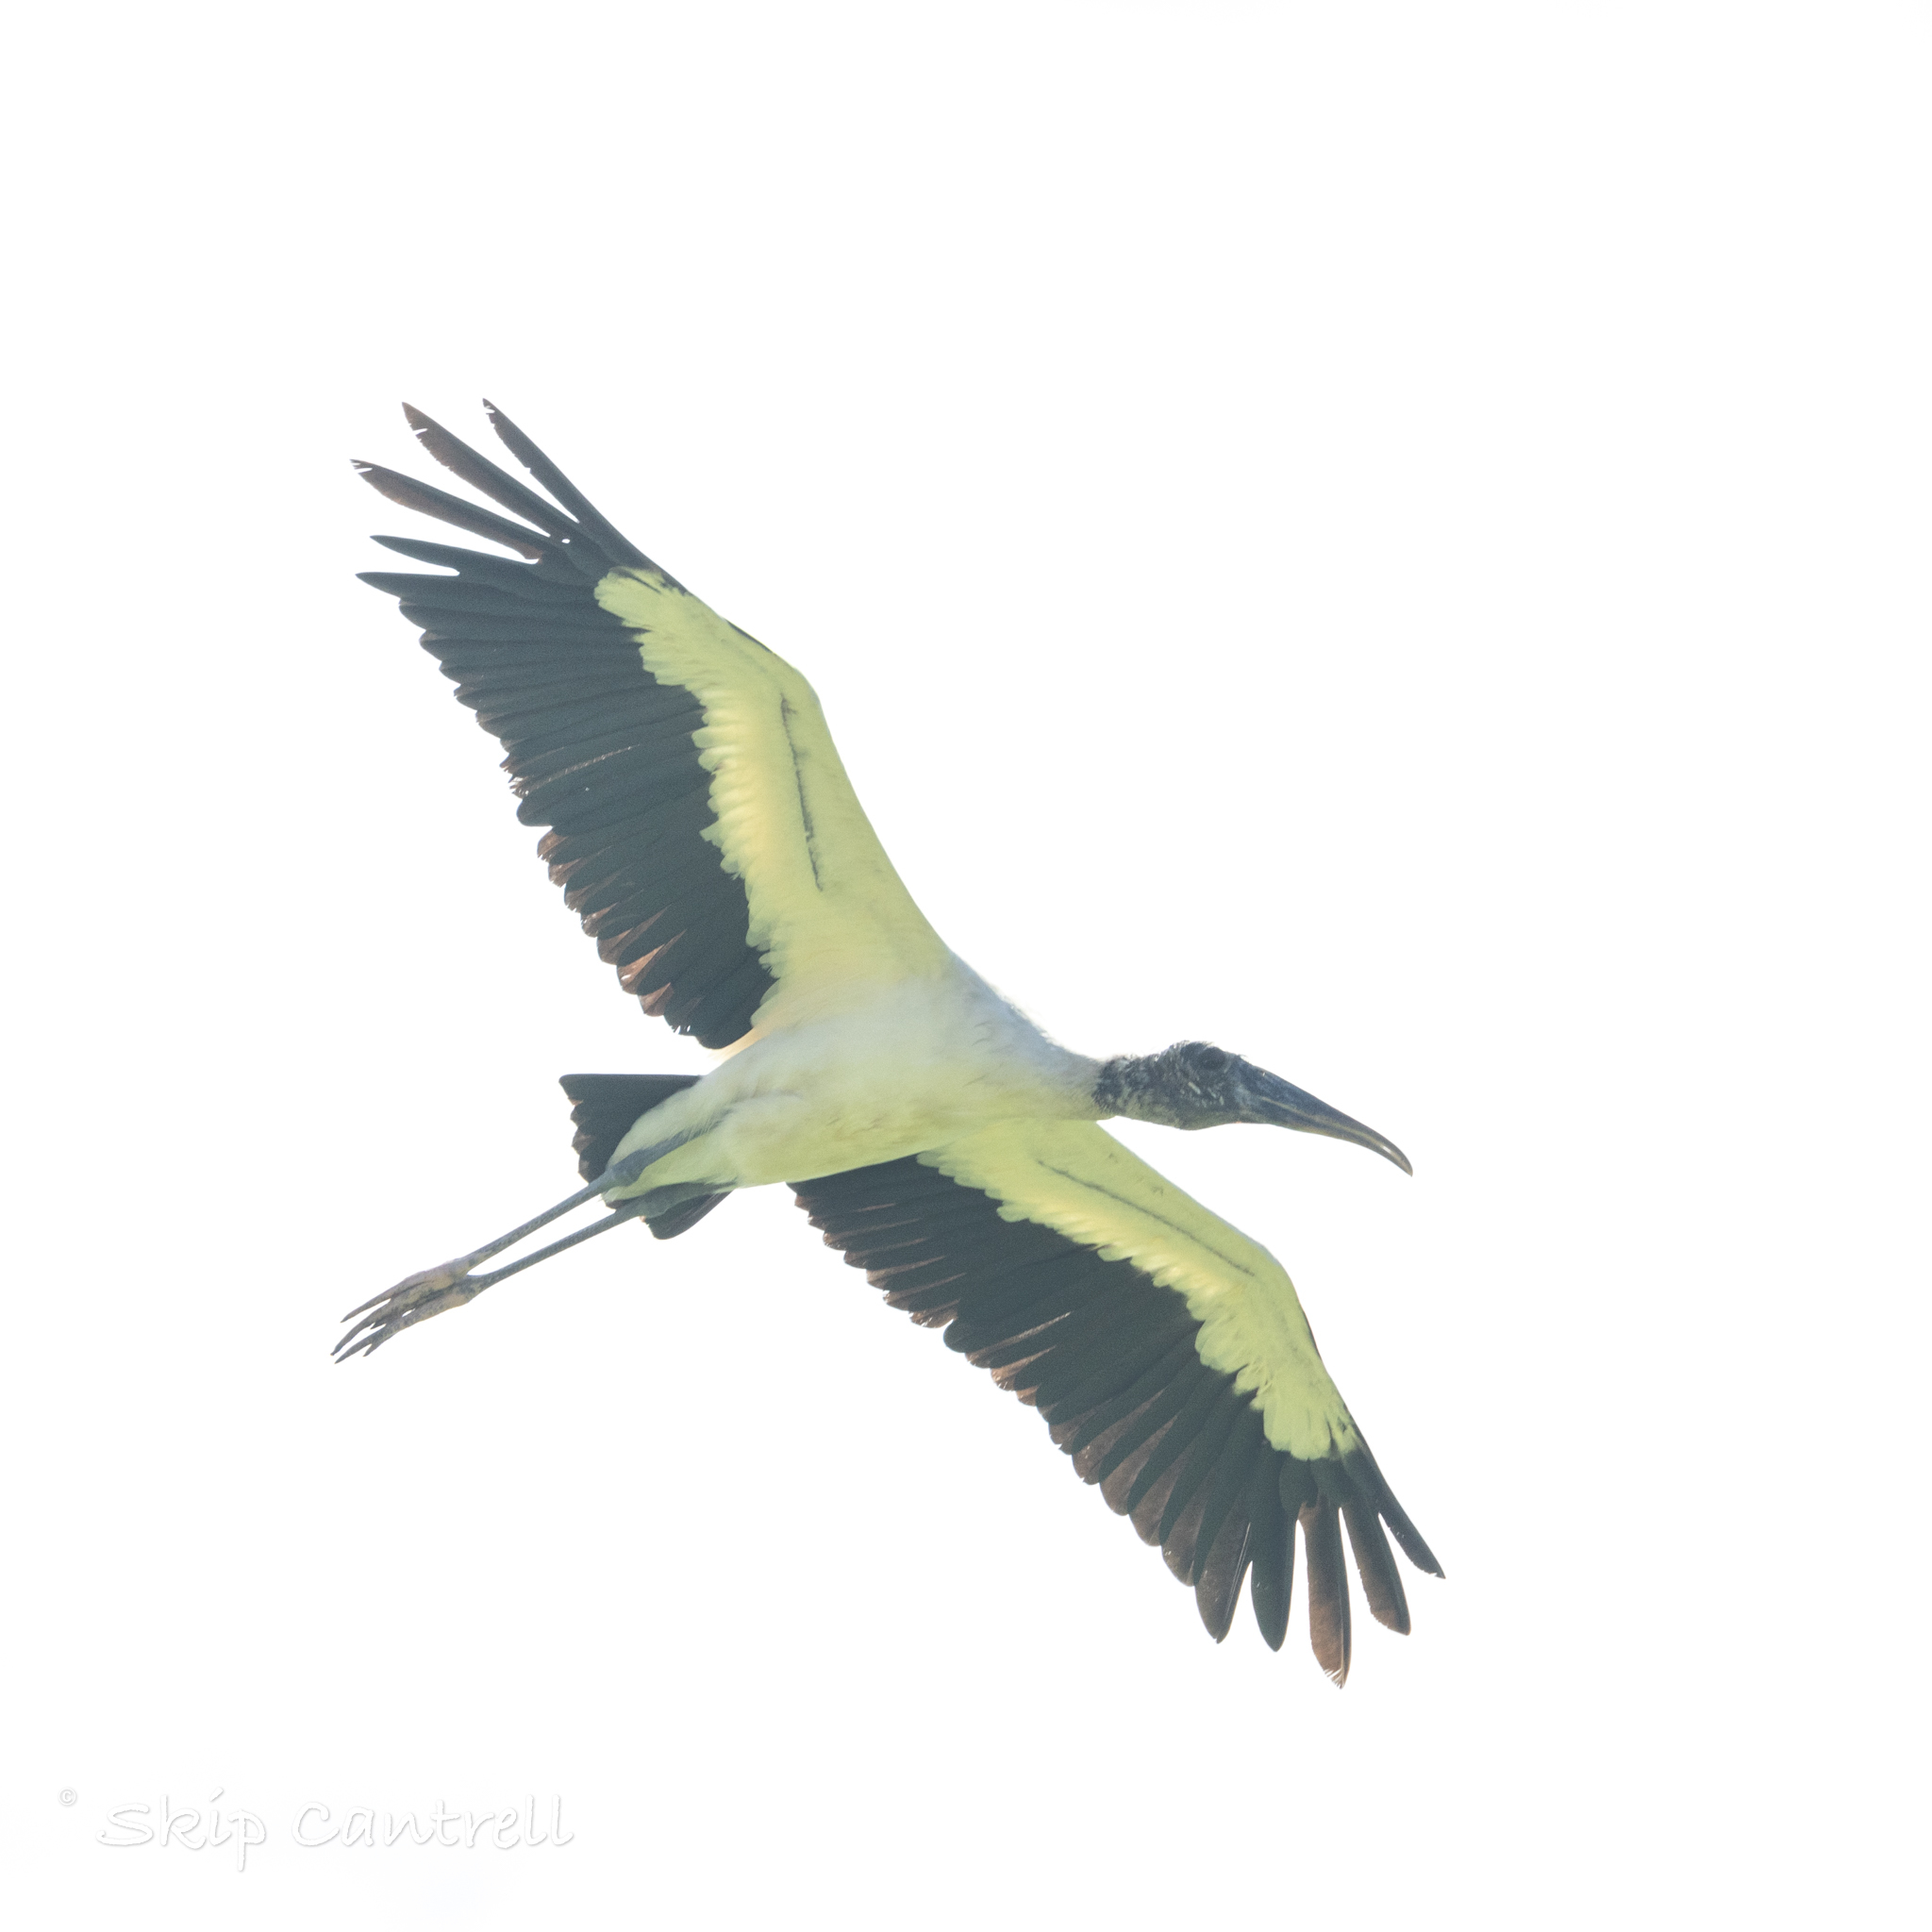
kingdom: Animalia
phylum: Chordata
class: Aves
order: Ciconiiformes
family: Ciconiidae
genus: Mycteria
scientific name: Mycteria americana
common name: Wood stork
